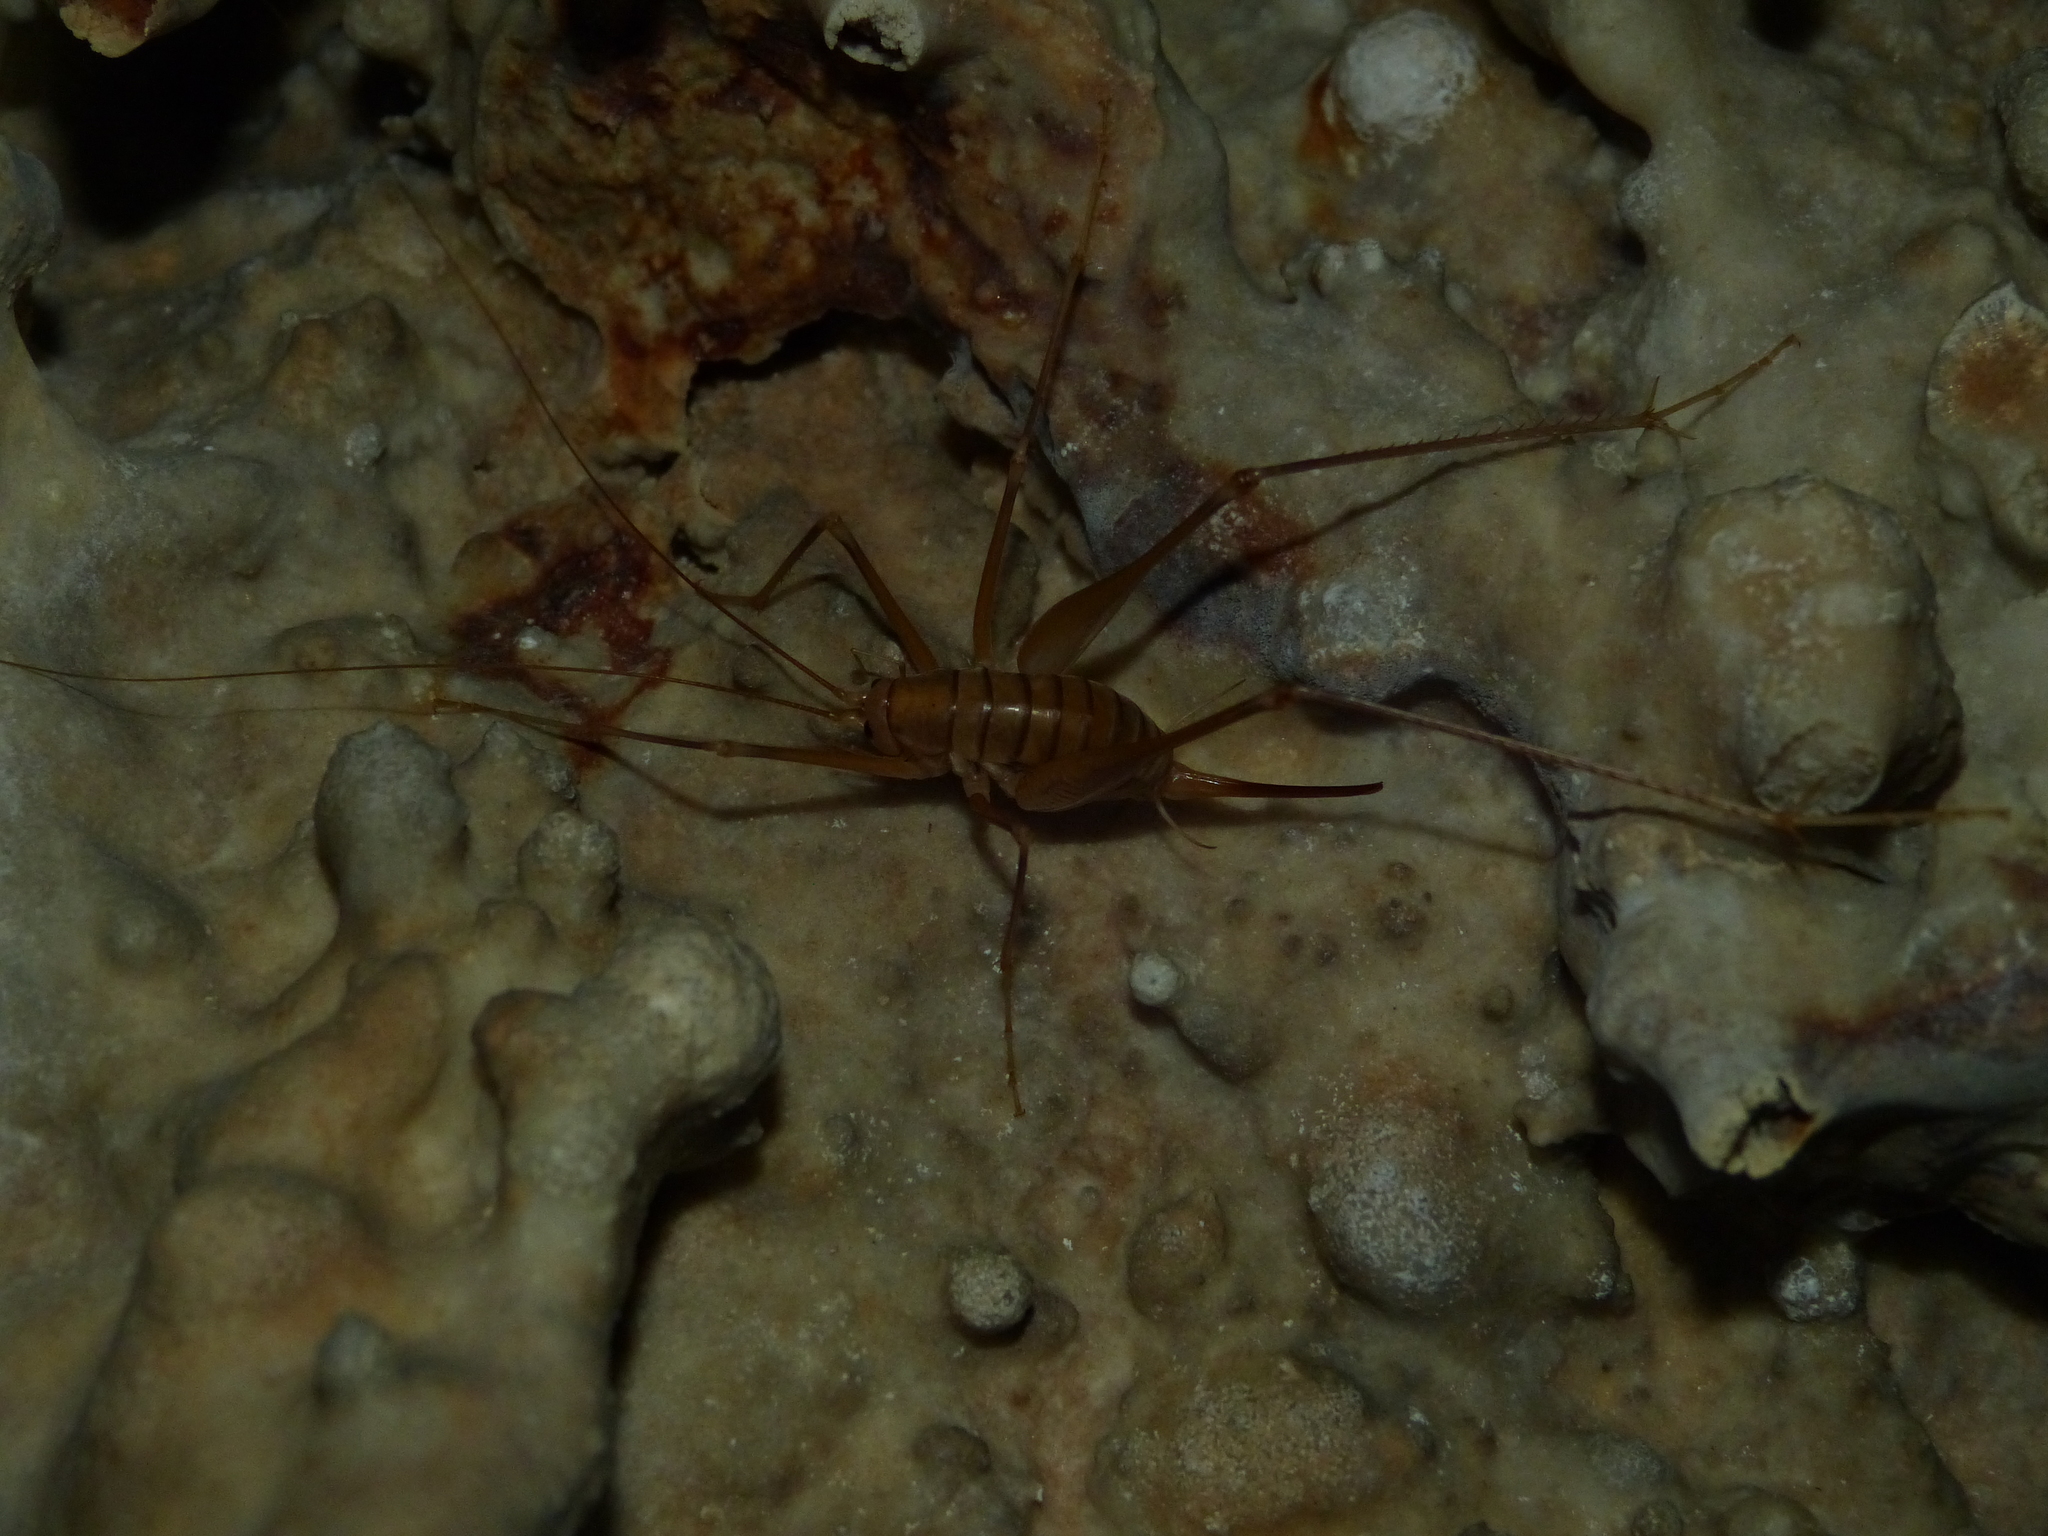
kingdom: Animalia
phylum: Arthropoda
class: Insecta
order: Orthoptera
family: Rhaphidophoridae
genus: Dolichopoda
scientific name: Dolichopoda linderii
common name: Languedoc cave-cricket
